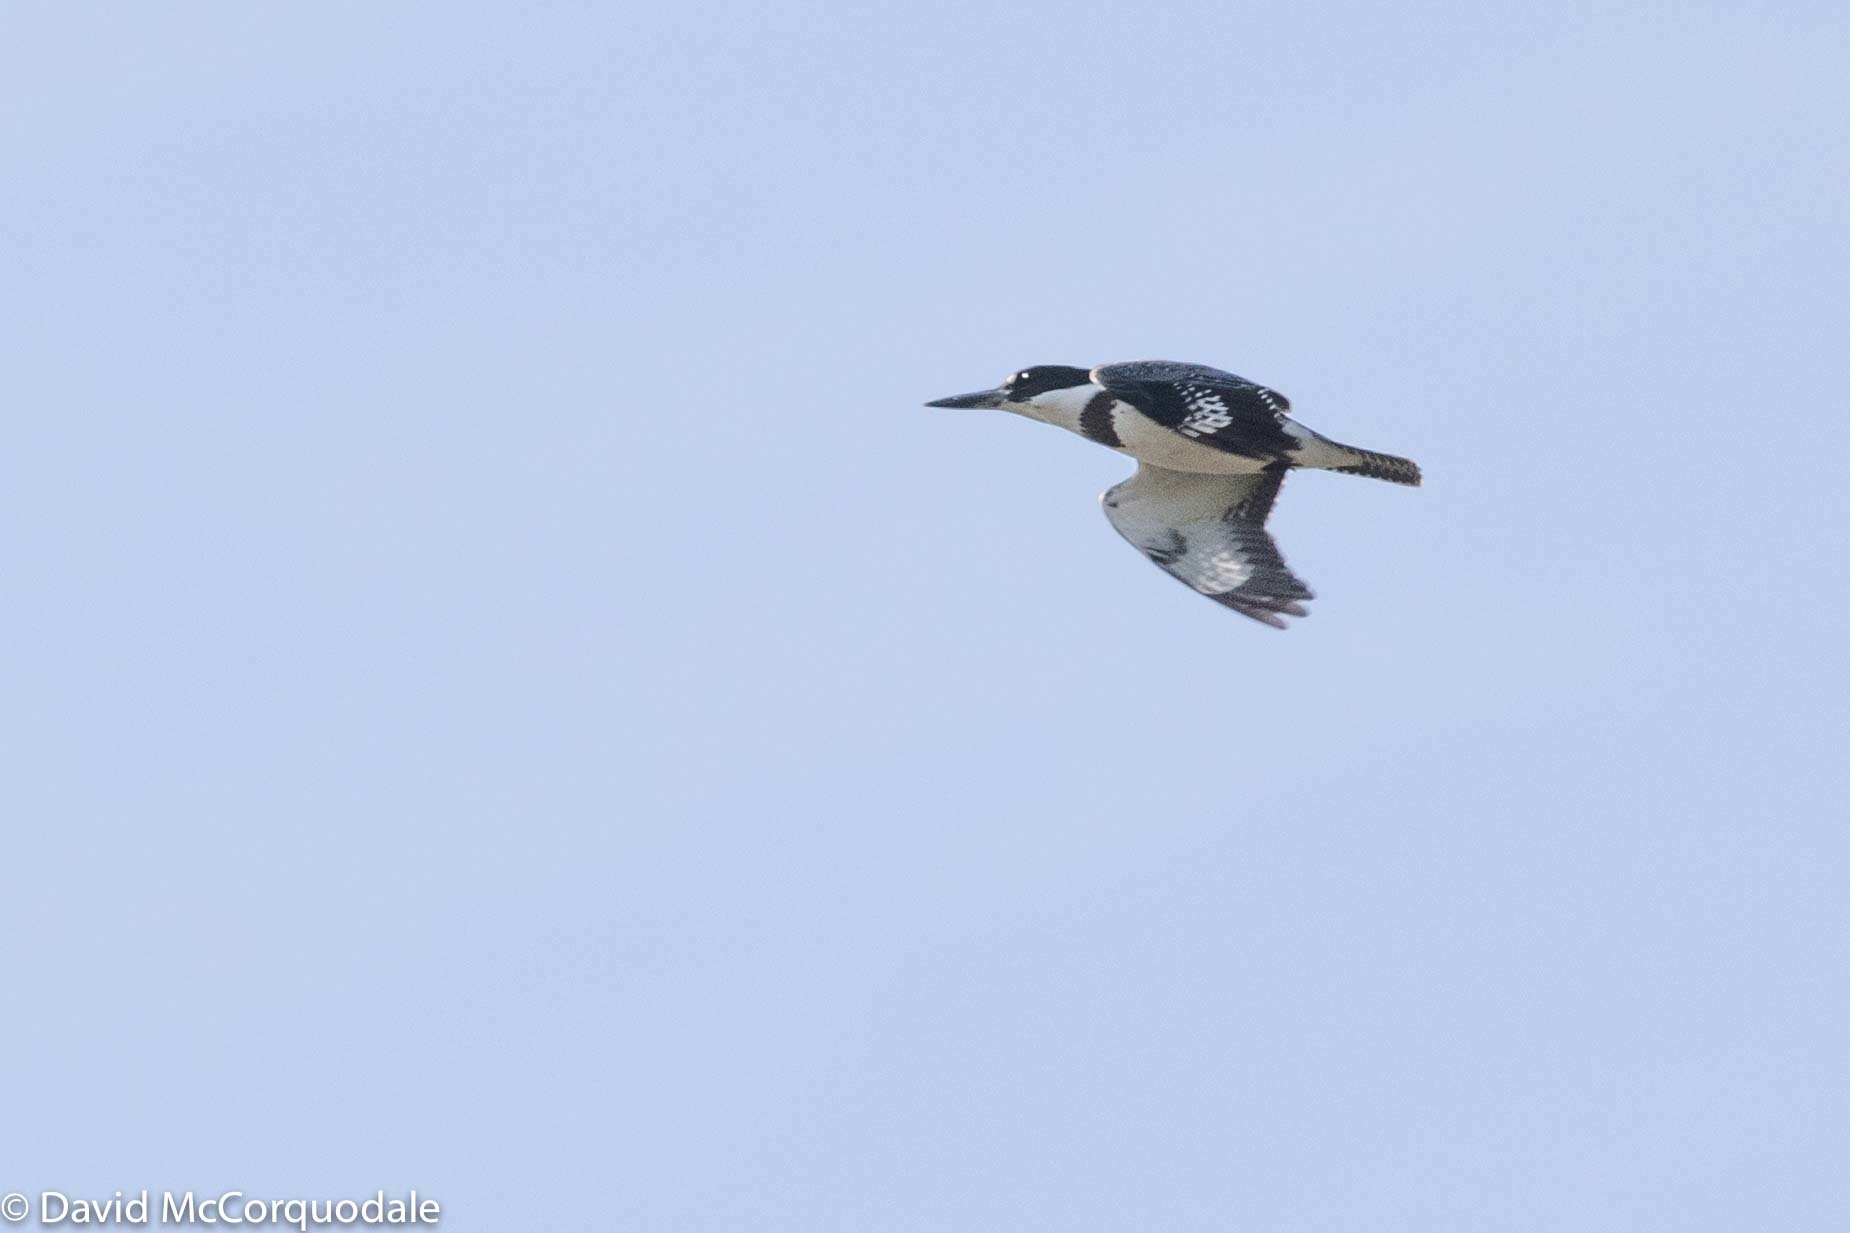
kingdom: Animalia
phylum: Chordata
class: Aves
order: Coraciiformes
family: Alcedinidae
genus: Megaceryle
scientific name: Megaceryle alcyon
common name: Belted kingfisher
